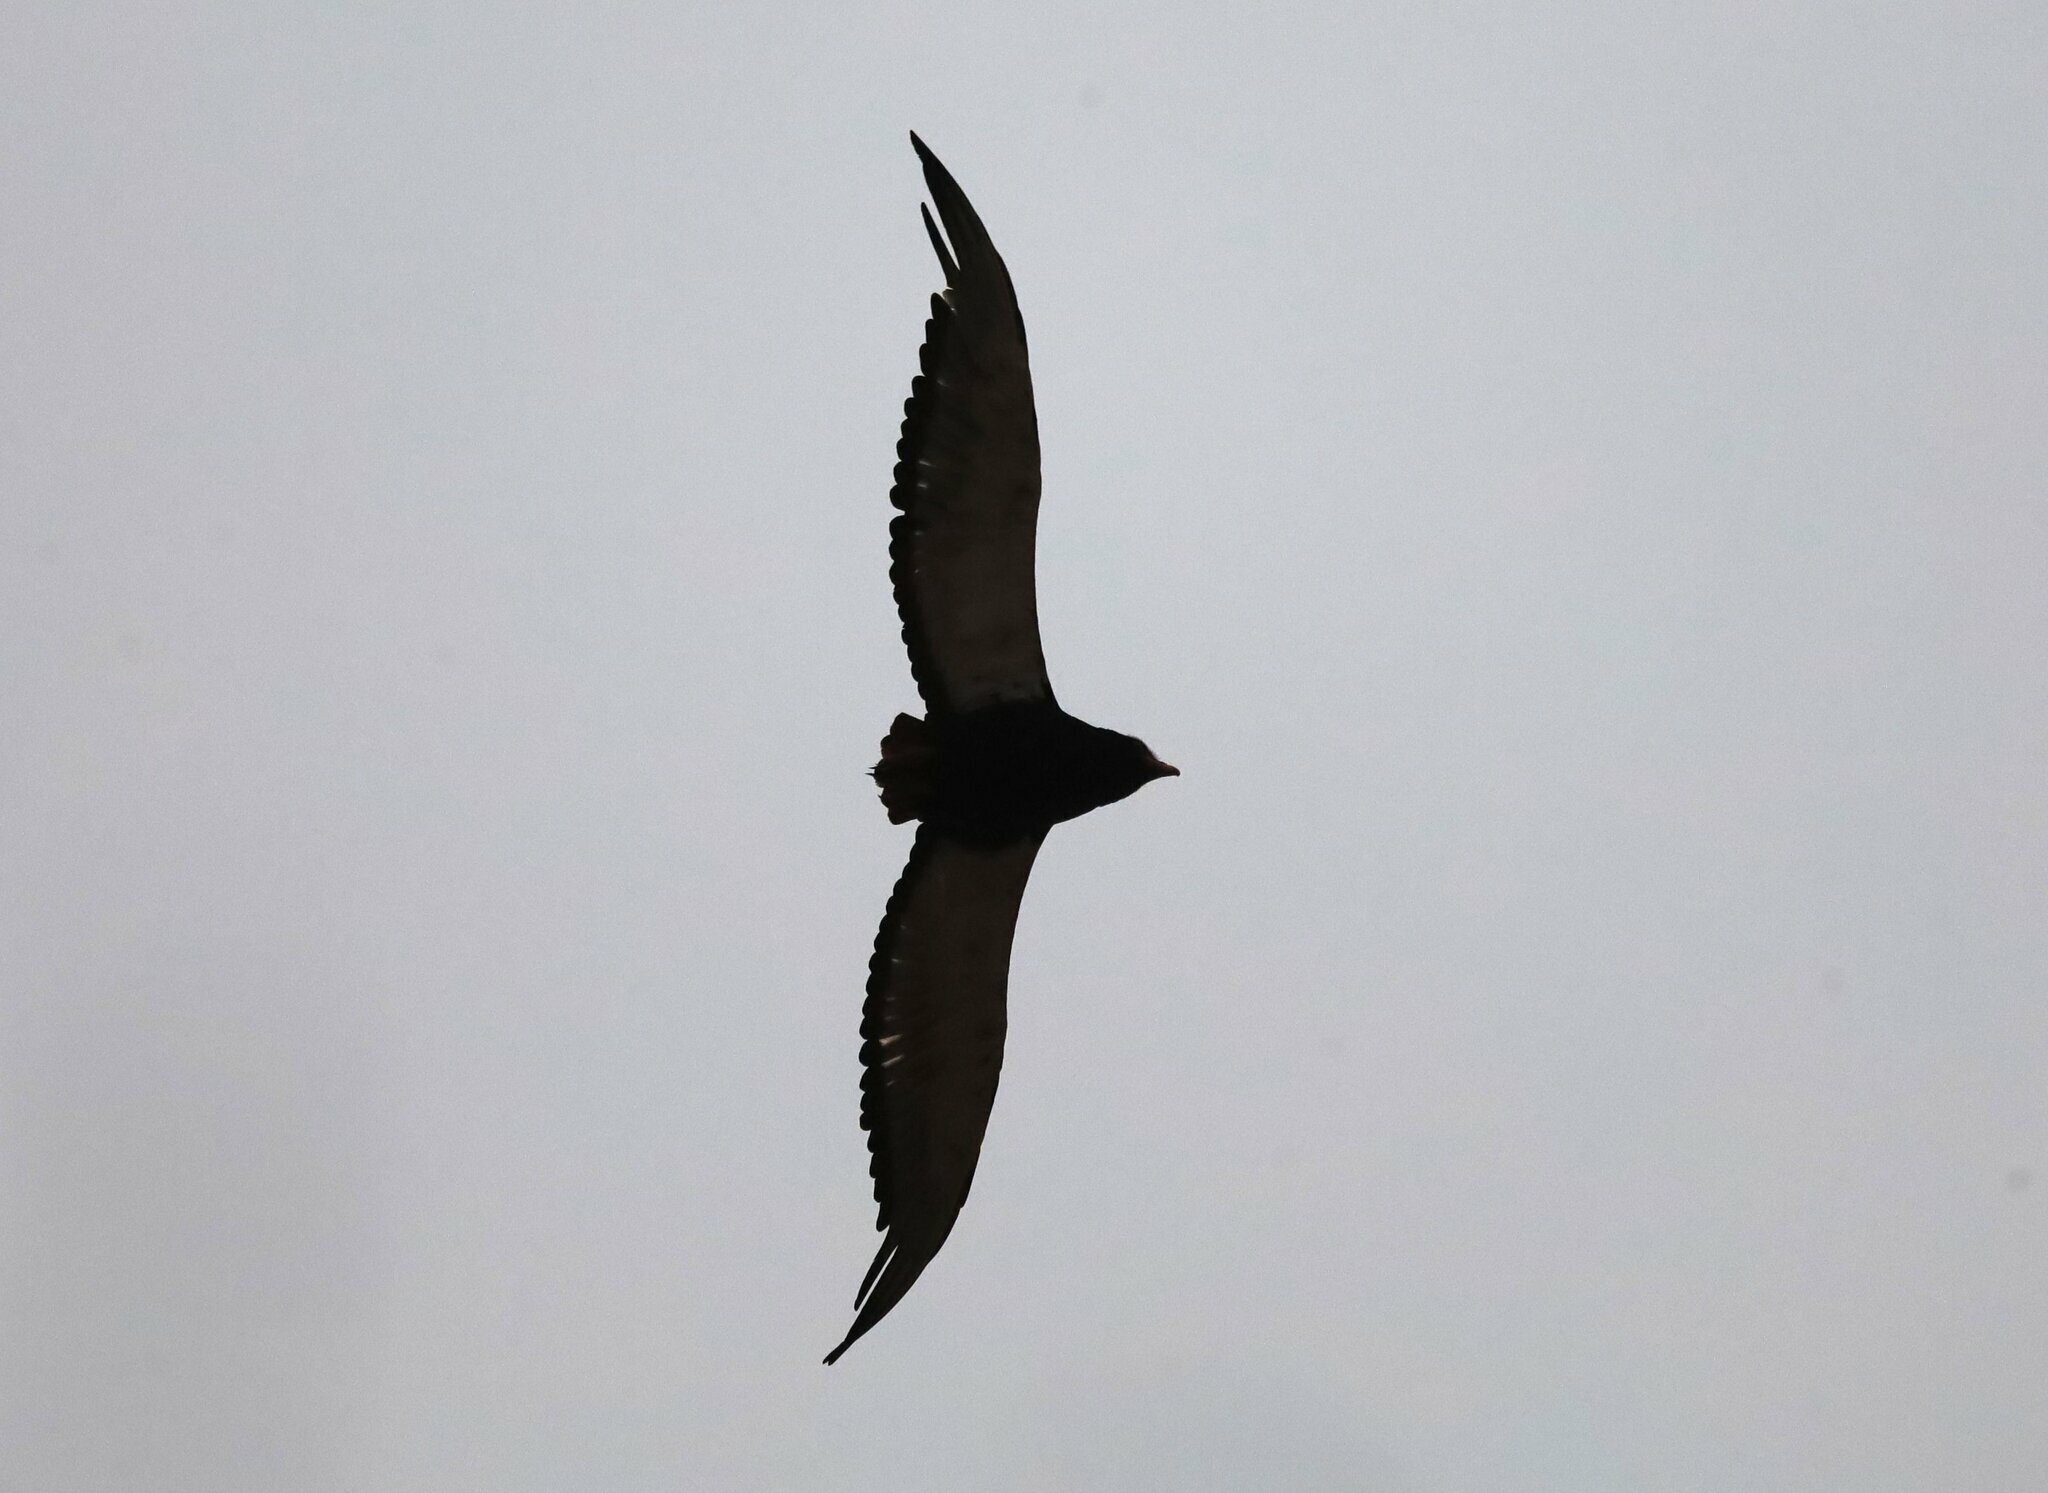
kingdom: Animalia
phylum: Chordata
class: Aves
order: Accipitriformes
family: Accipitridae
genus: Terathopius
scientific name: Terathopius ecaudatus
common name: Bateleur
